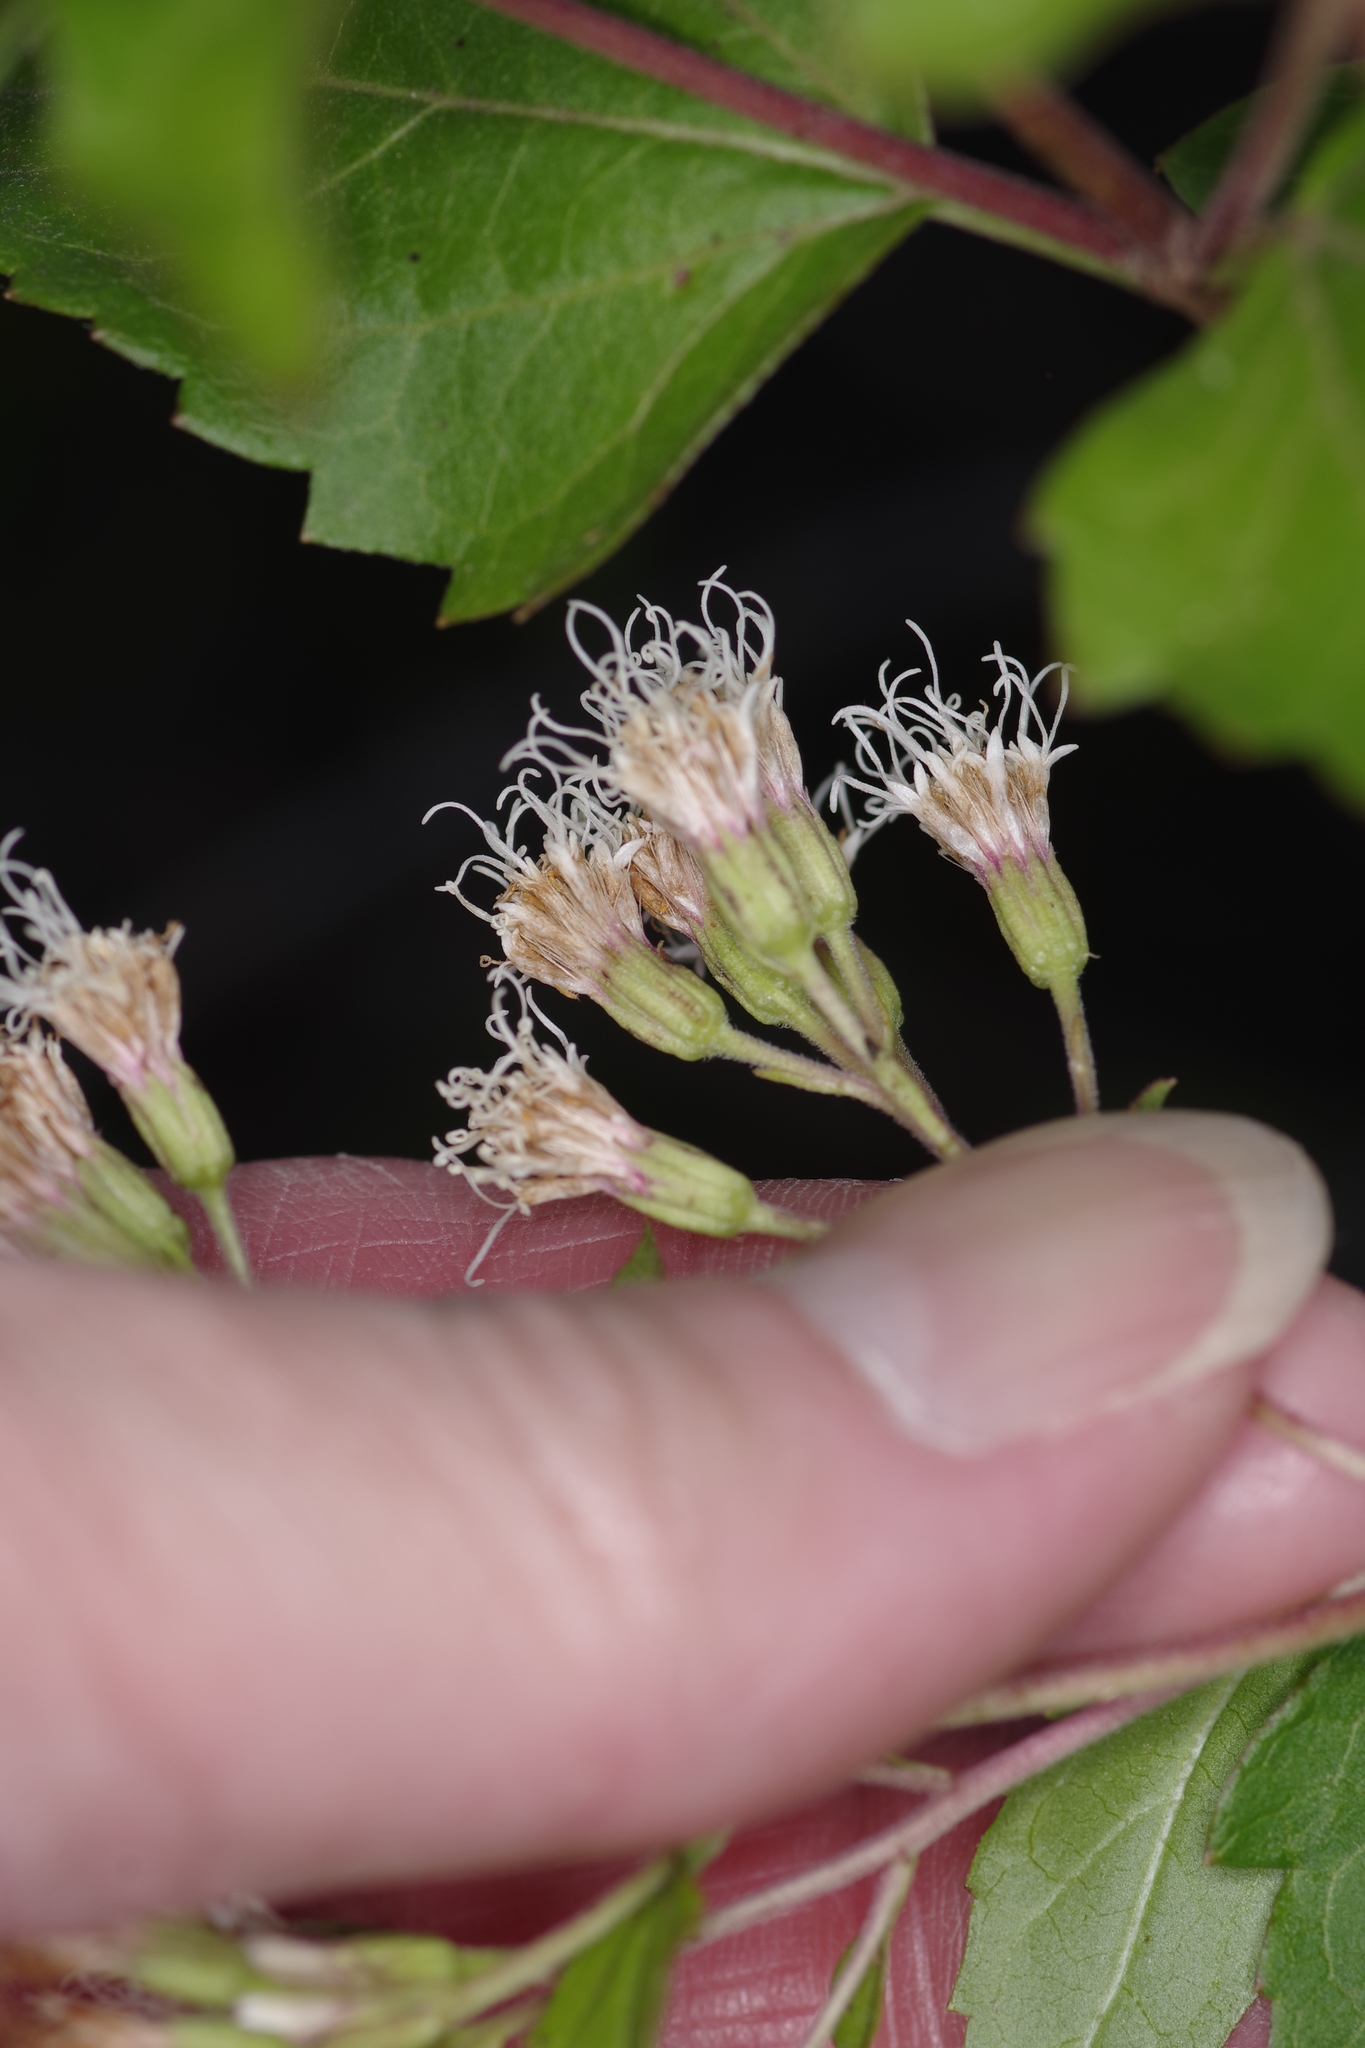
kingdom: Plantae
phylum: Tracheophyta
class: Magnoliopsida
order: Asterales
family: Asteraceae
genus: Ageratina
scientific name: Ageratina havanensis
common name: Havana snakeroot
